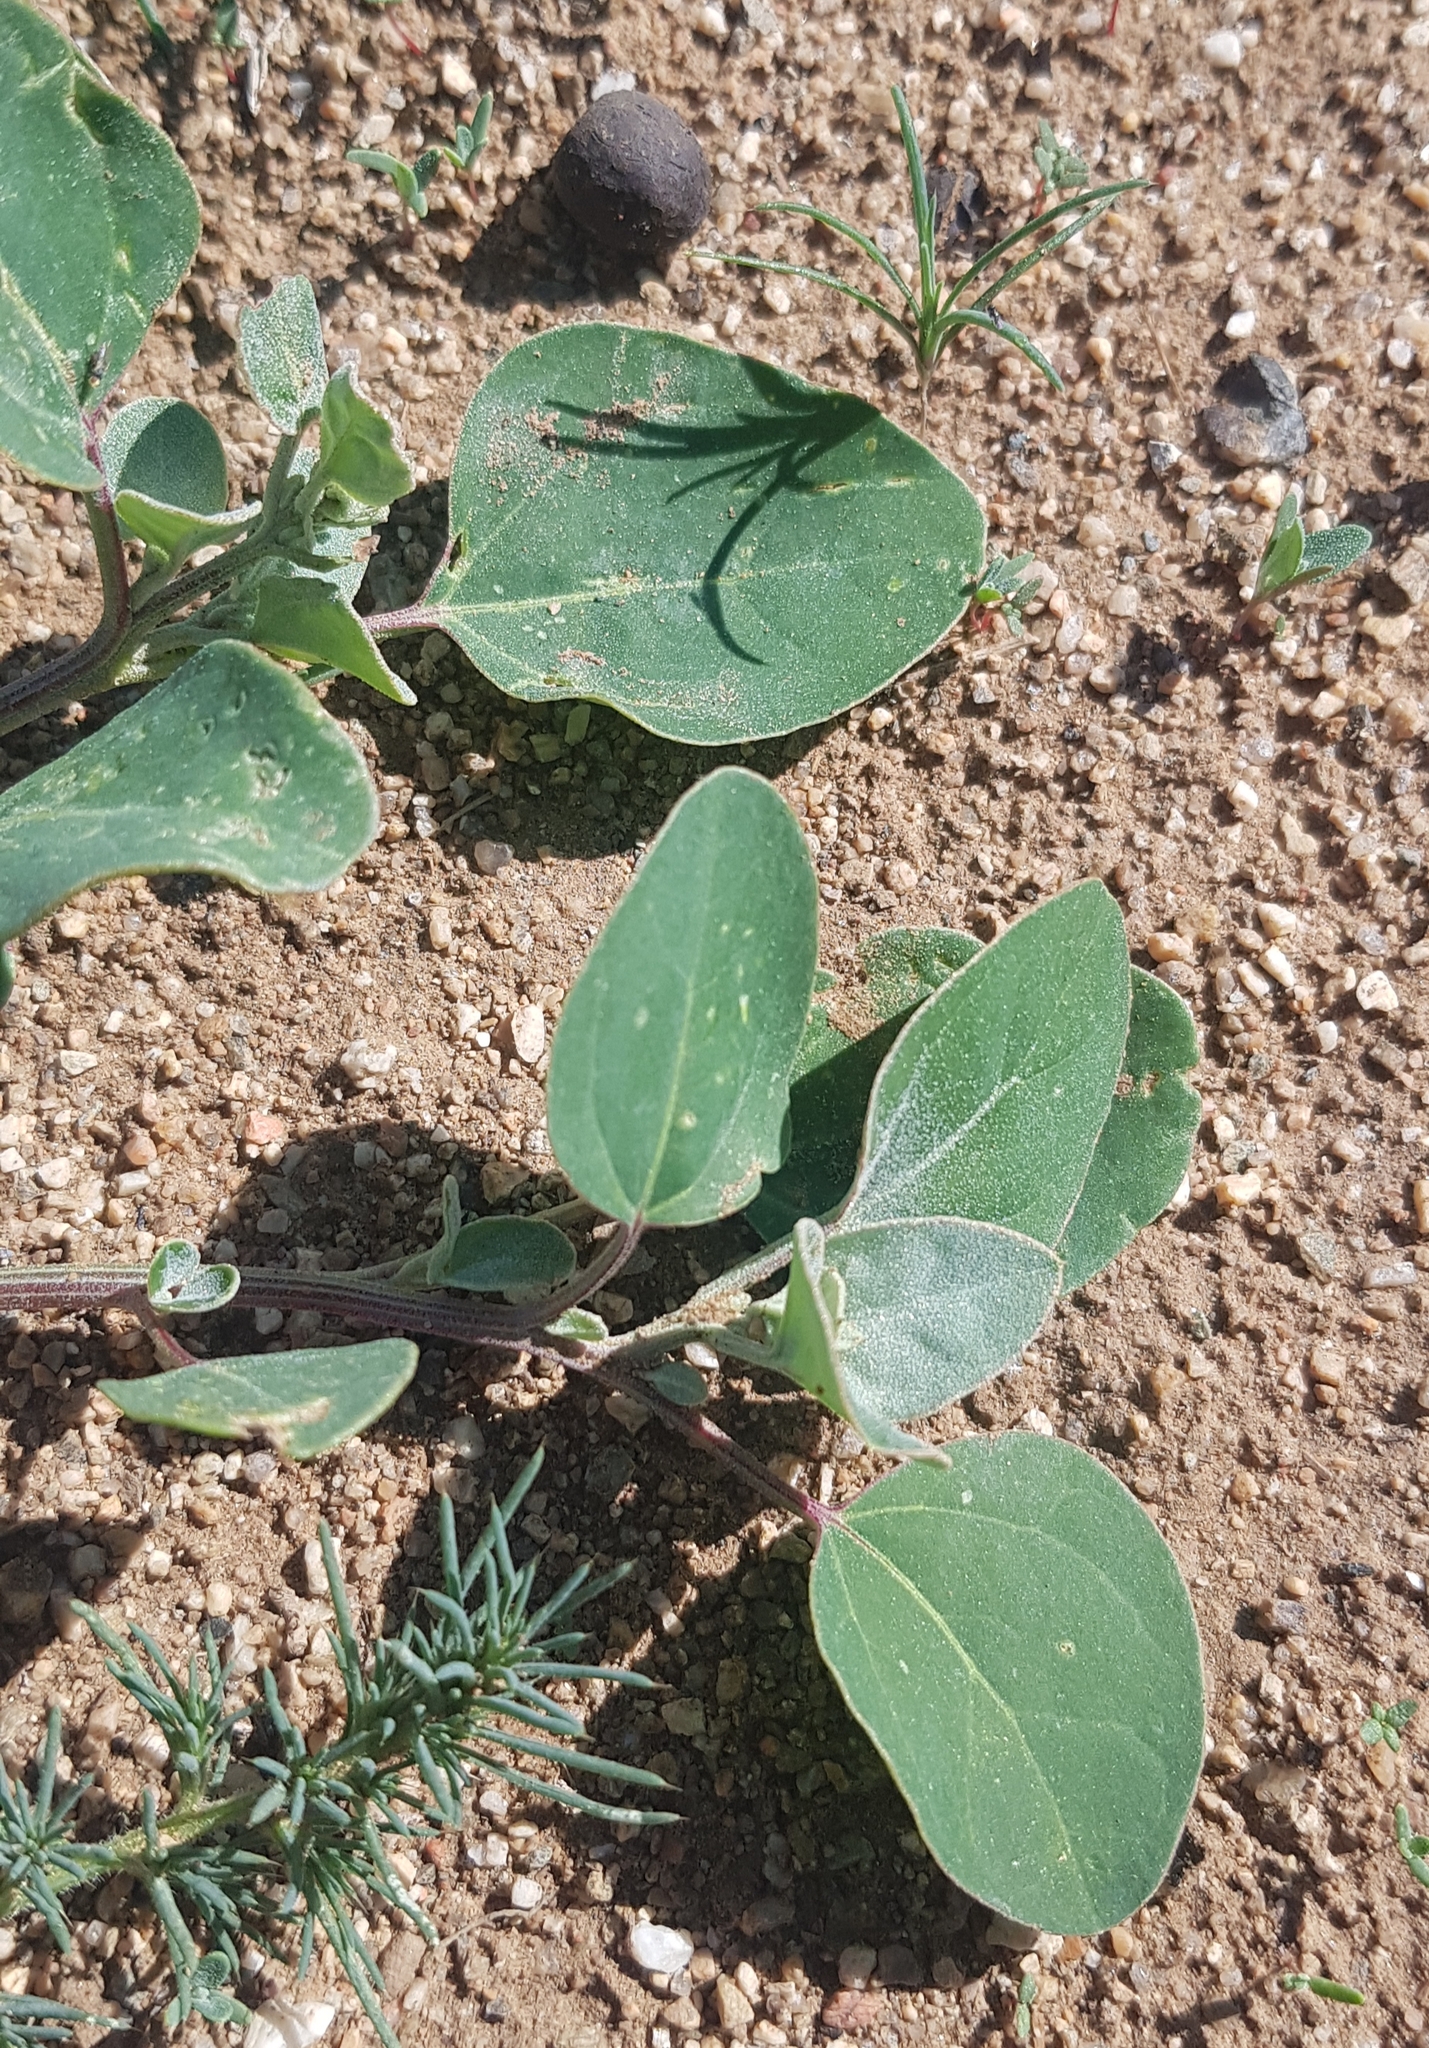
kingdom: Plantae
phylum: Tracheophyta
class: Magnoliopsida
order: Caryophyllales
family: Amaranthaceae
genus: Chenopodium
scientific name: Chenopodium acuminatum
